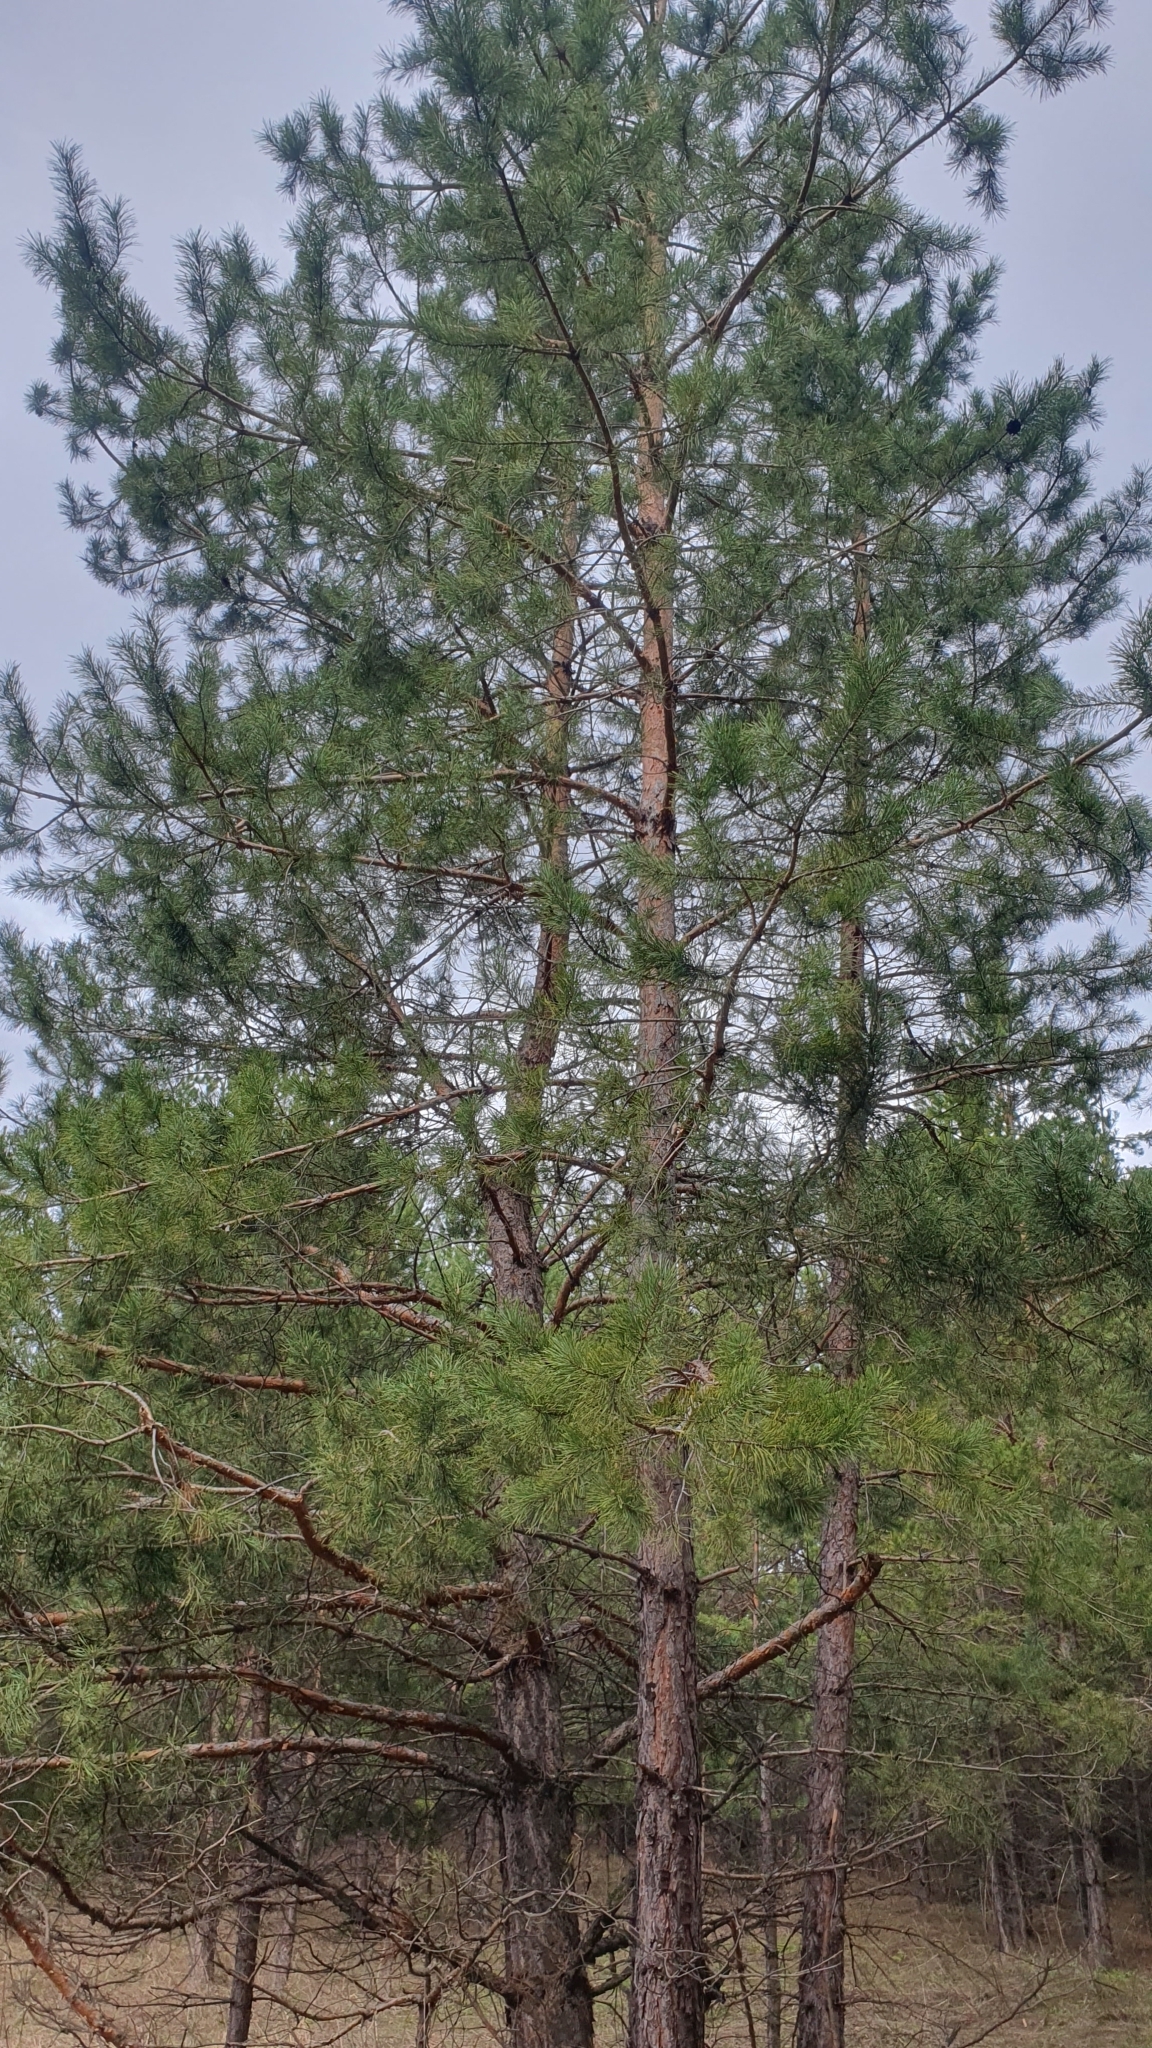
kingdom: Plantae
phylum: Tracheophyta
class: Pinopsida
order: Pinales
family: Pinaceae
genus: Pinus
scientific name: Pinus sylvestris
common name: Scots pine
